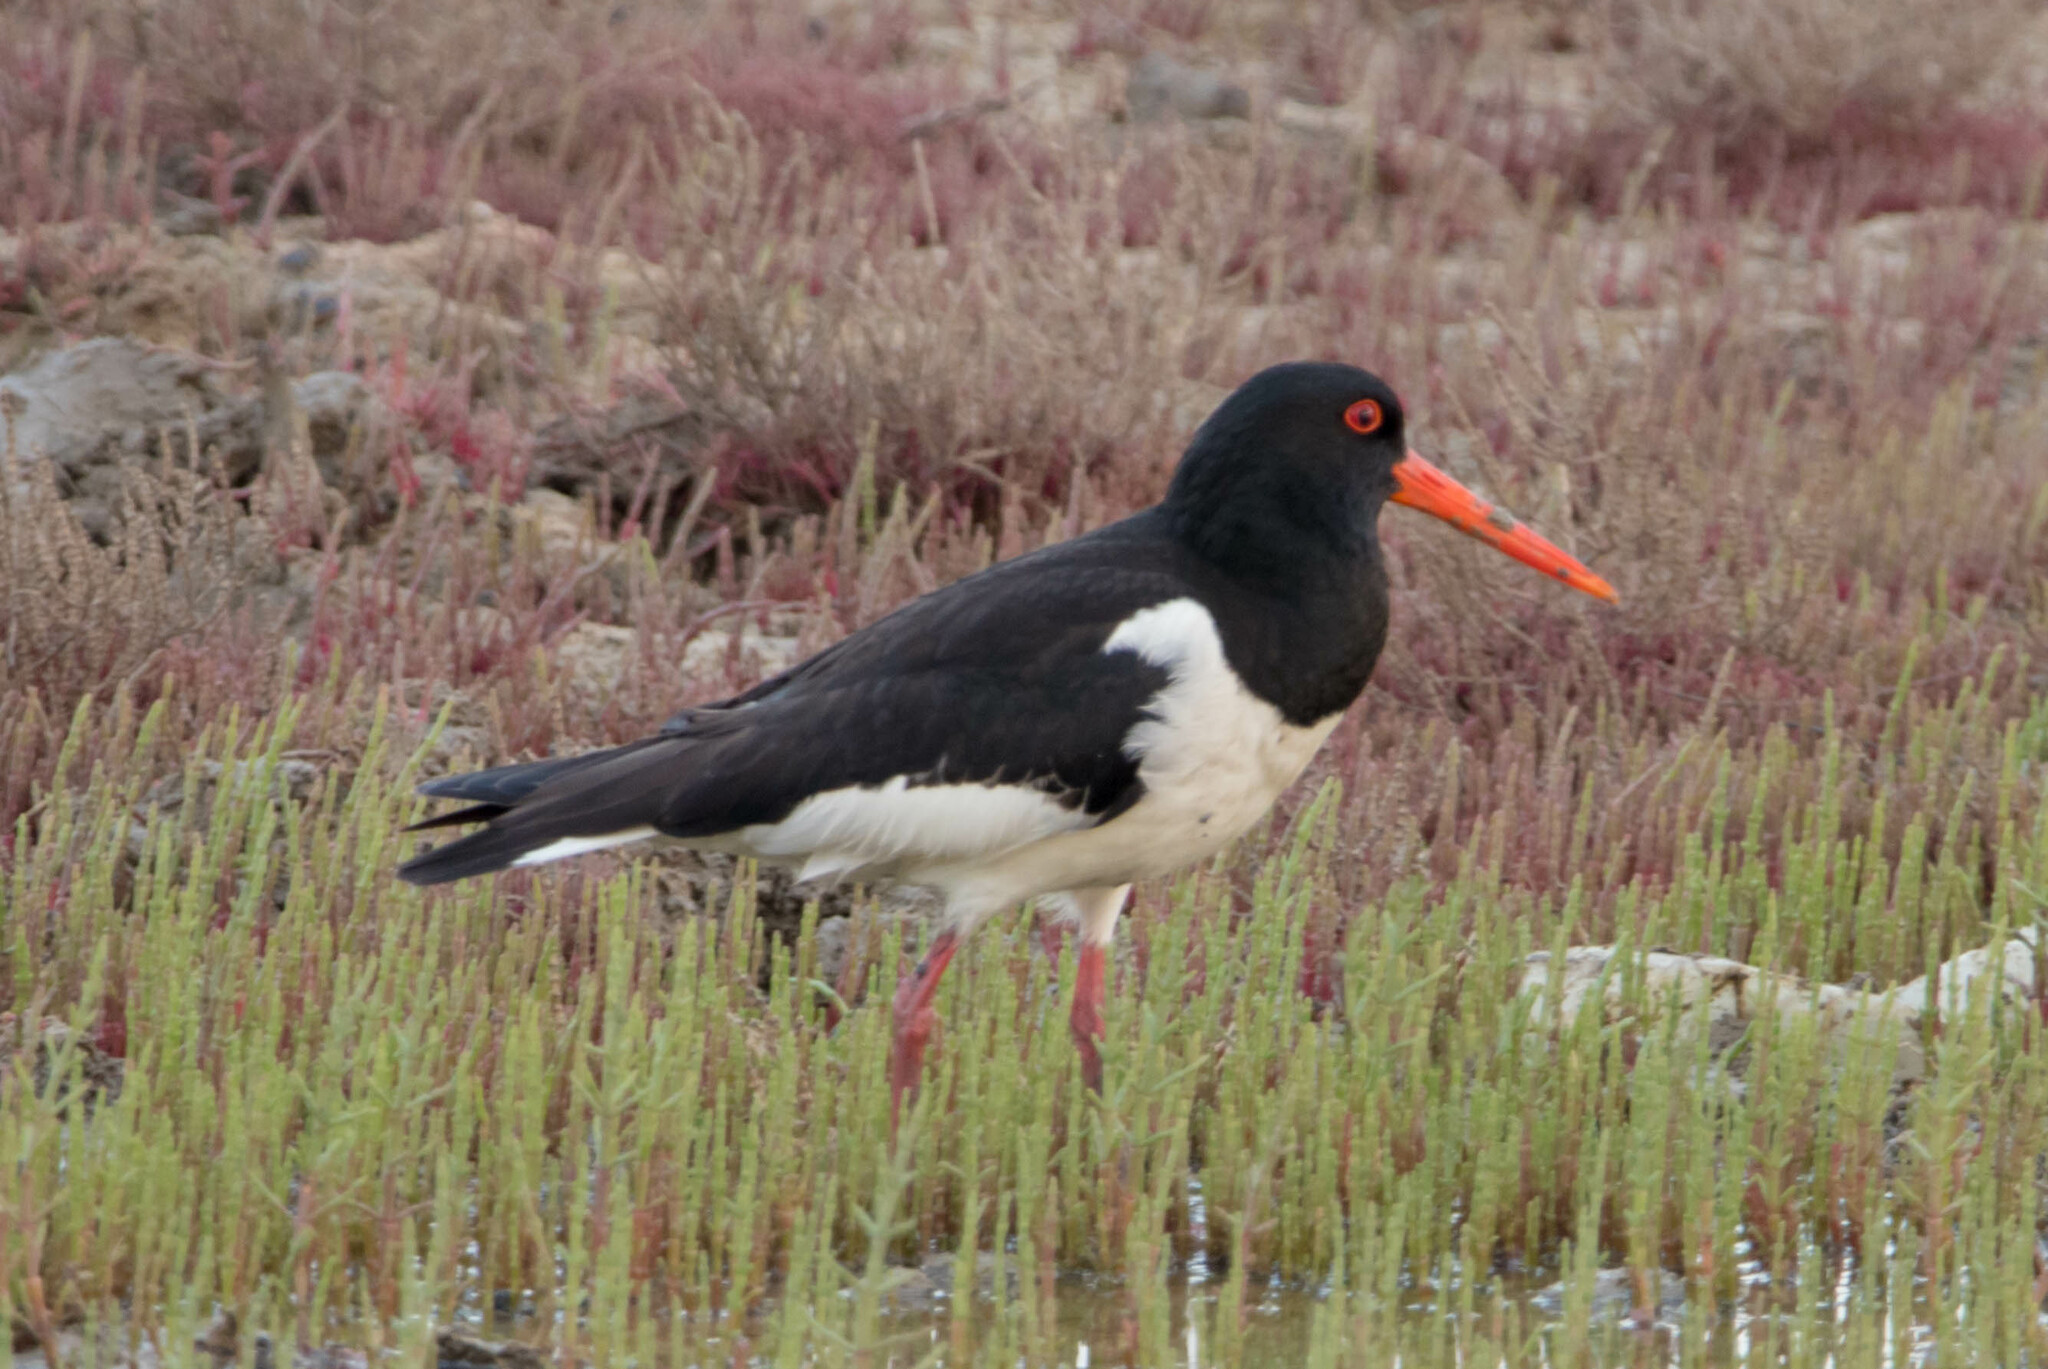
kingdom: Animalia
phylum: Chordata
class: Aves
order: Charadriiformes
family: Haematopodidae
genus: Haematopus
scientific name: Haematopus ostralegus
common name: Eurasian oystercatcher
